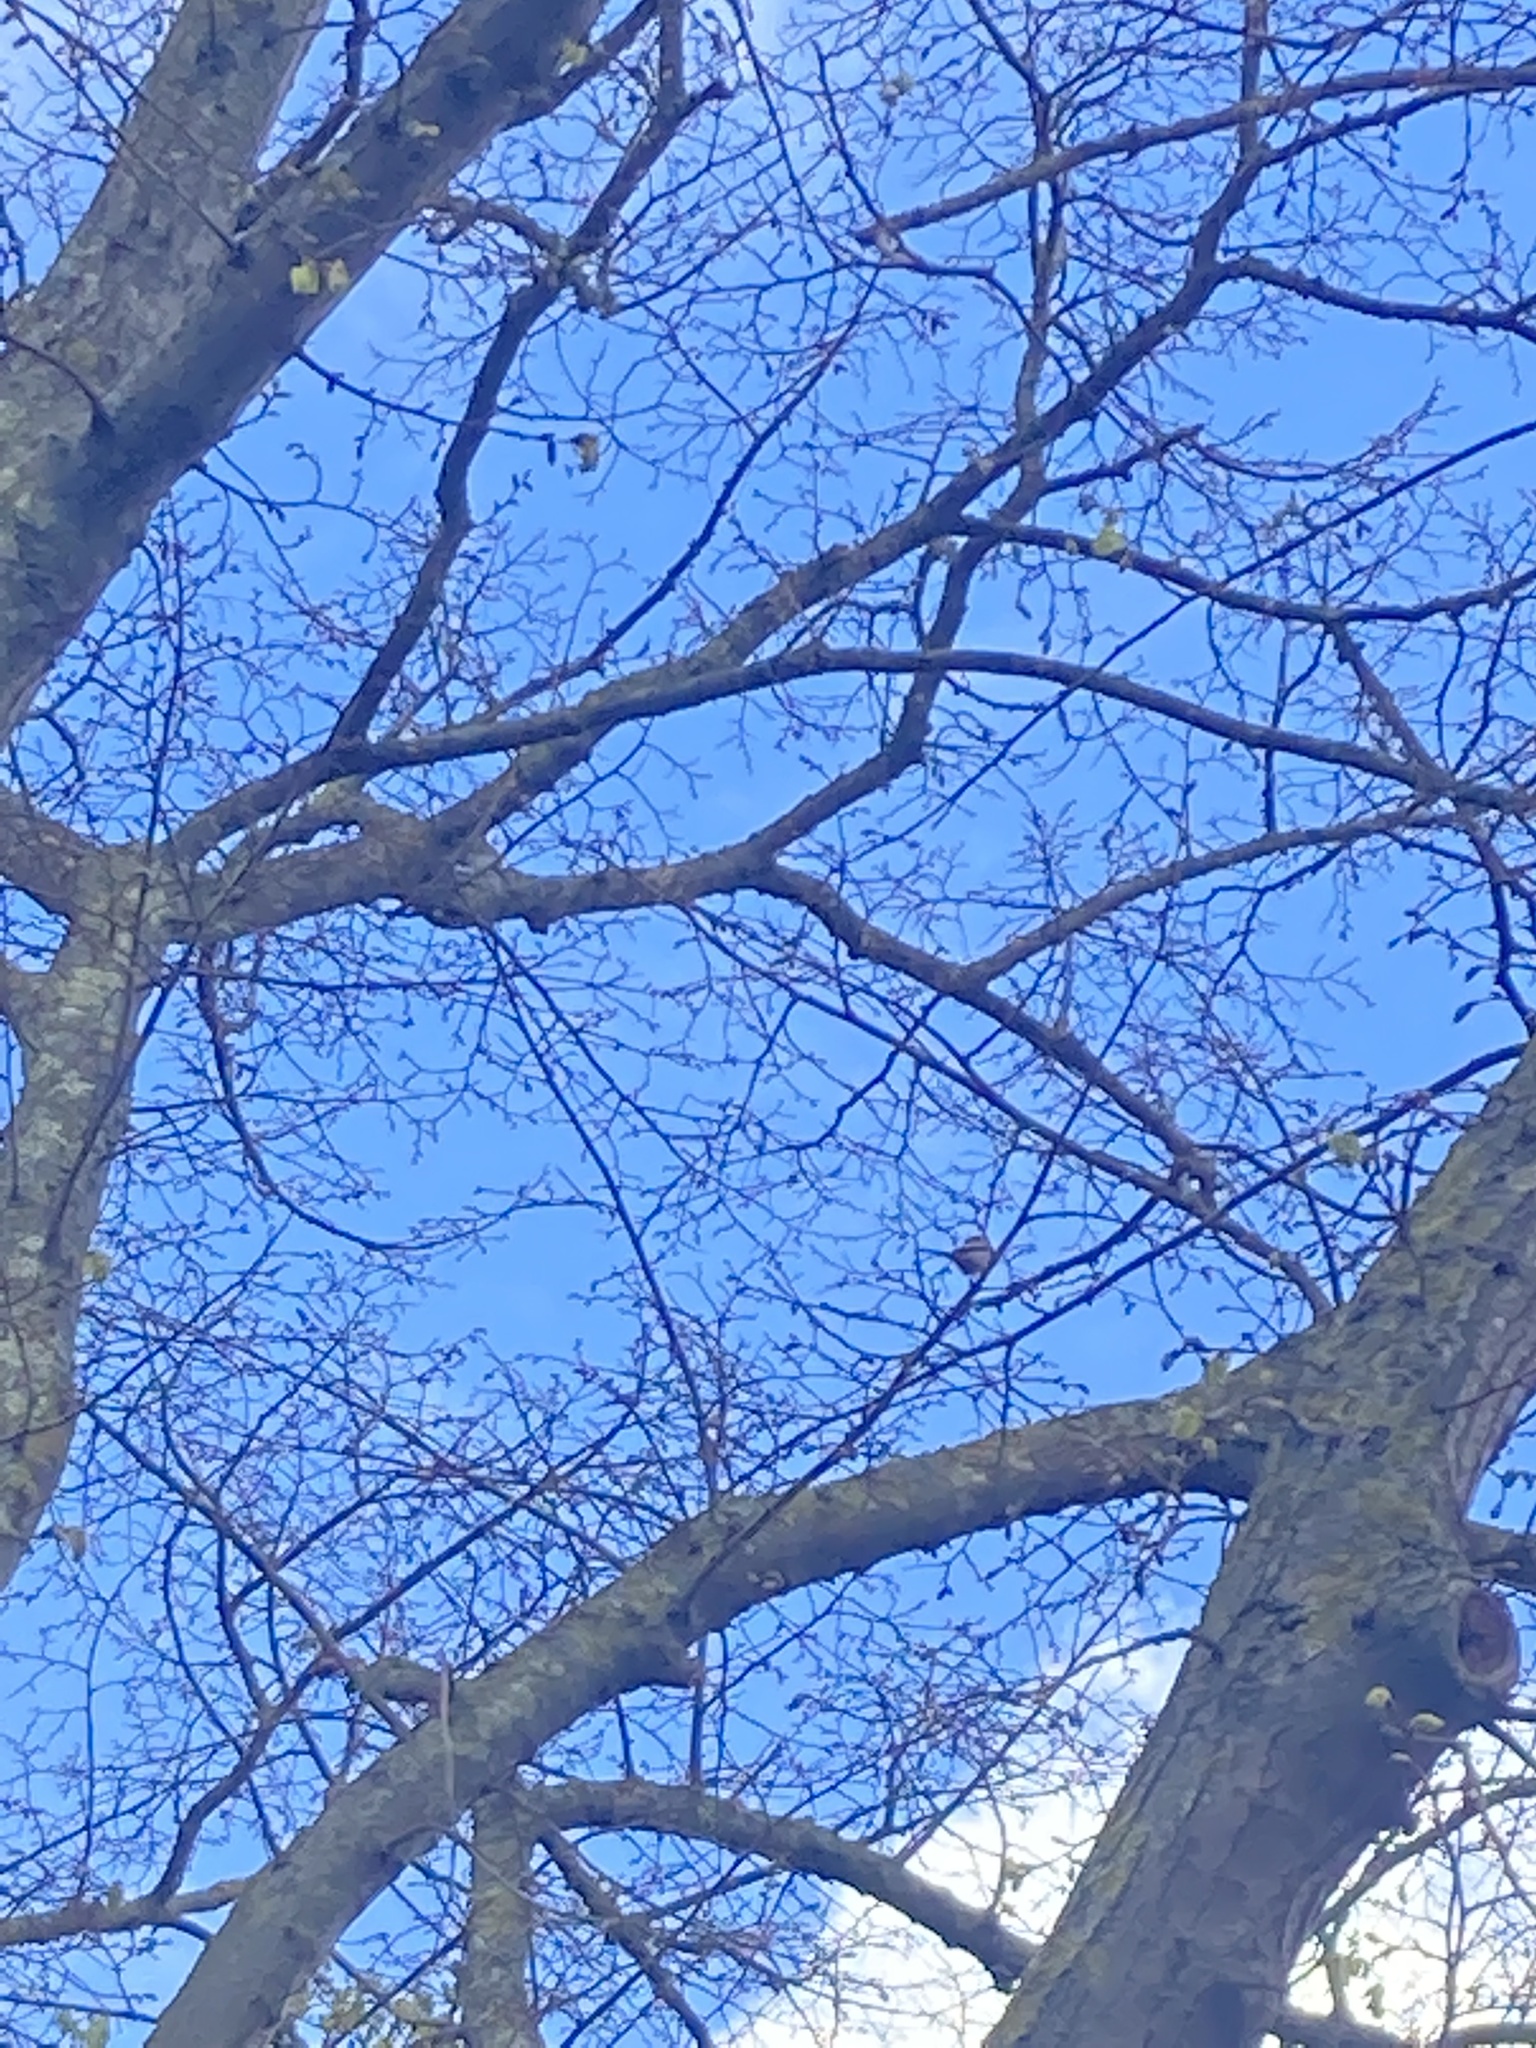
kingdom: Animalia
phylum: Chordata
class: Aves
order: Passeriformes
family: Aegithalidae
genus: Aegithalos
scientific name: Aegithalos caudatus
